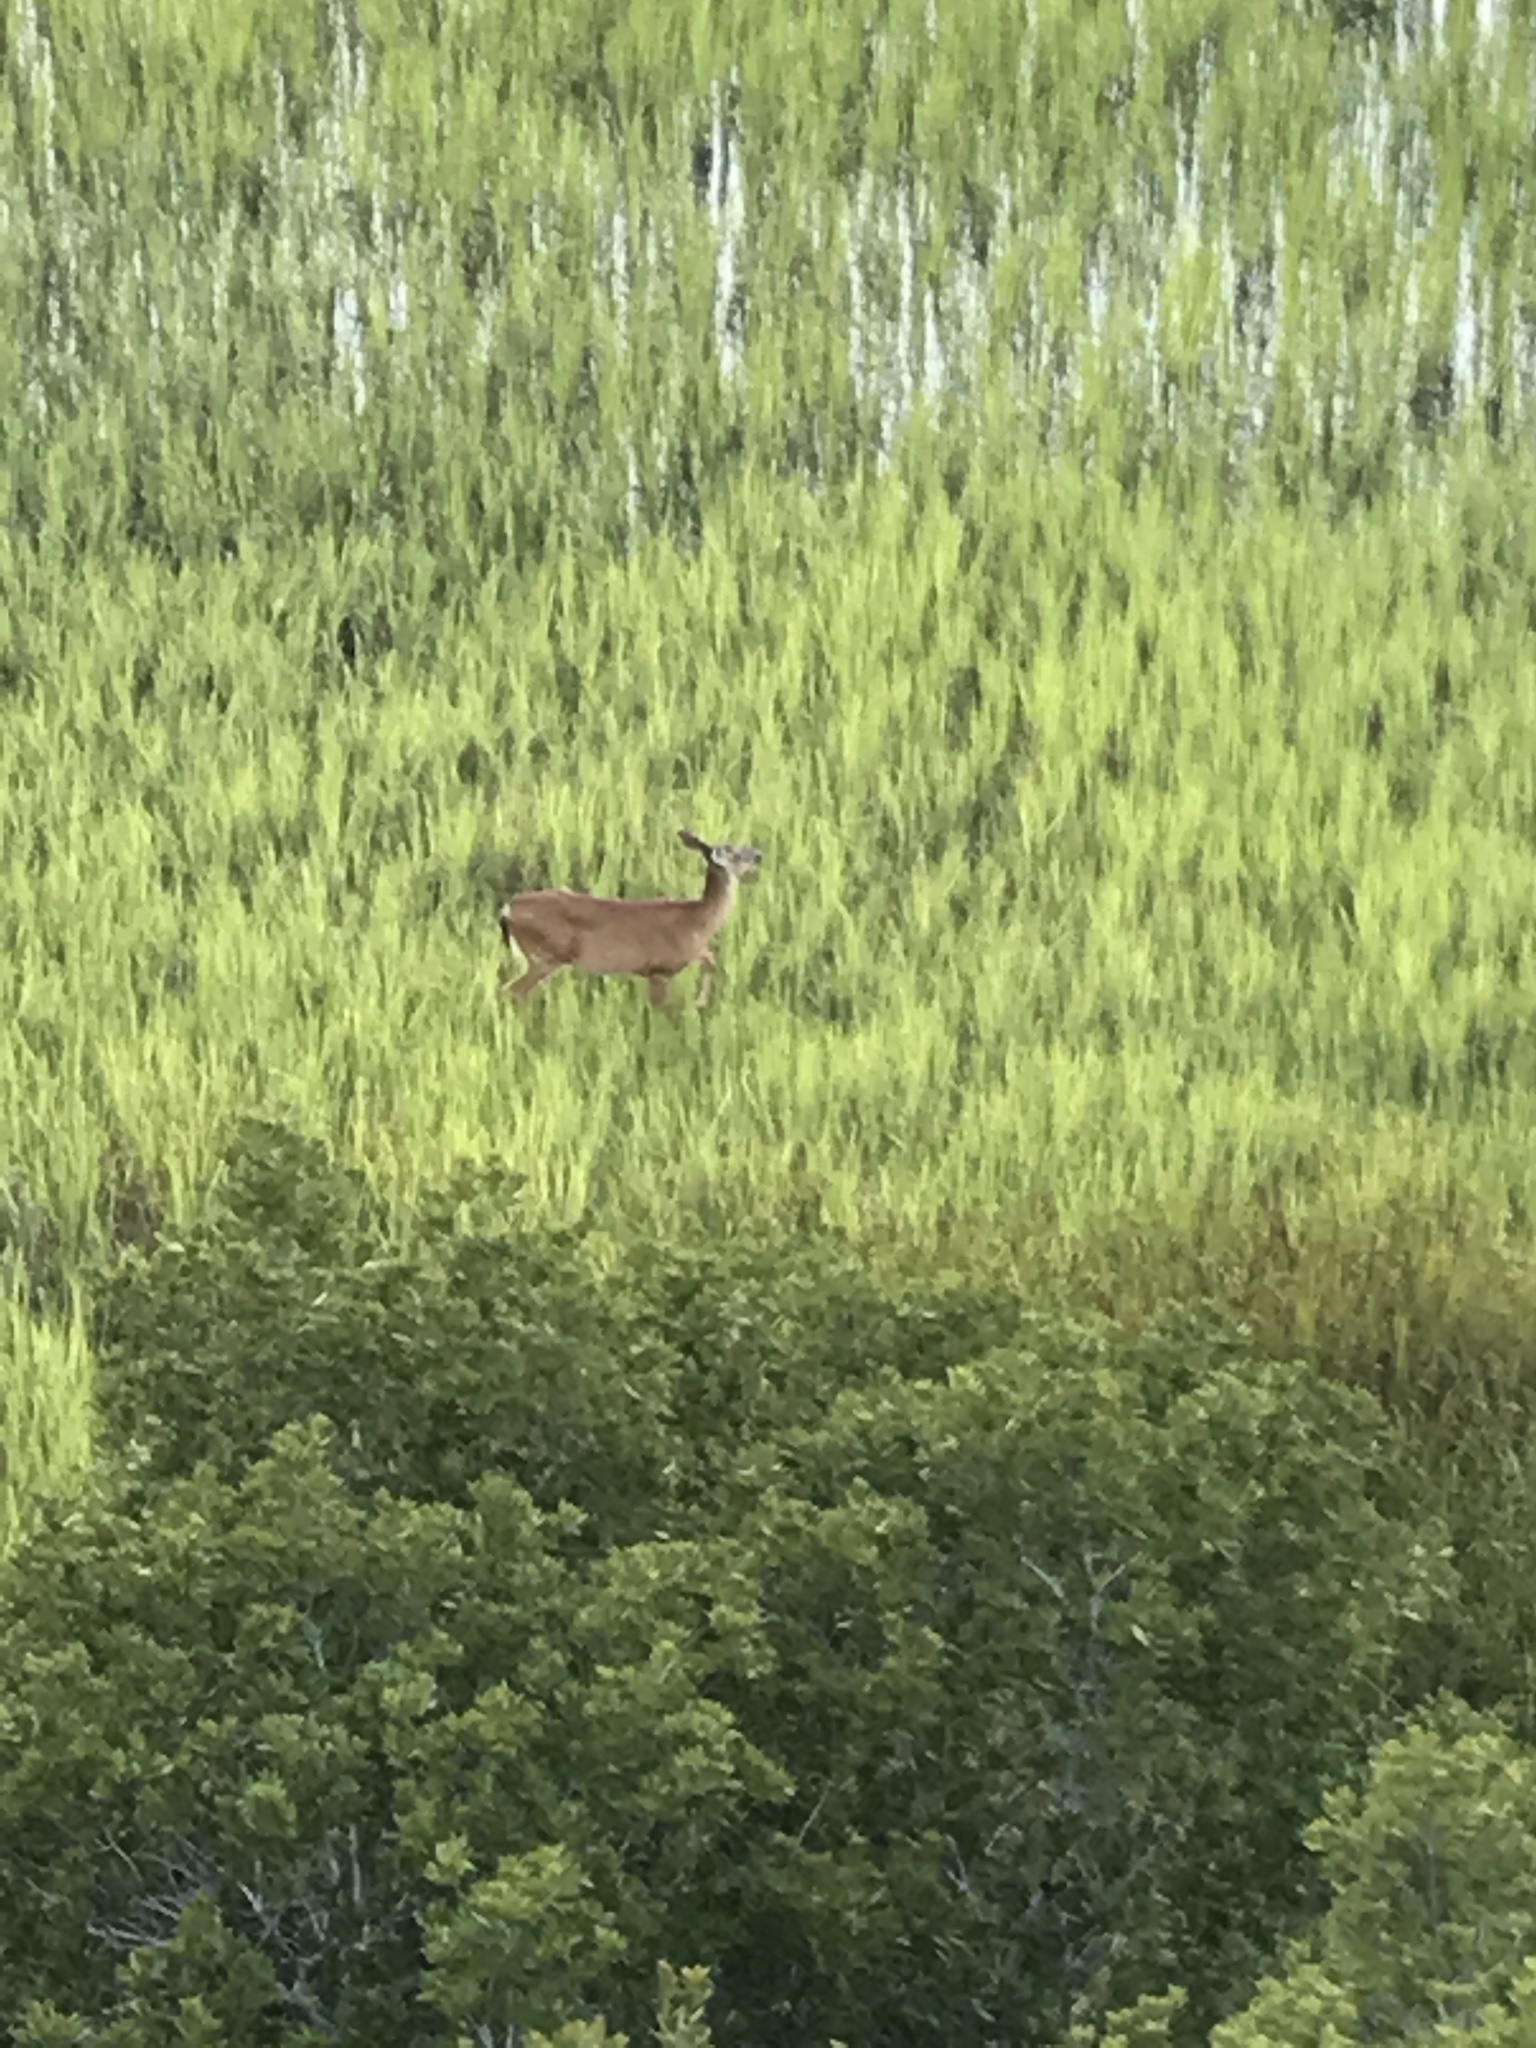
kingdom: Animalia
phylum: Chordata
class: Mammalia
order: Artiodactyla
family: Cervidae
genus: Odocoileus
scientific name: Odocoileus virginianus
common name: White-tailed deer
